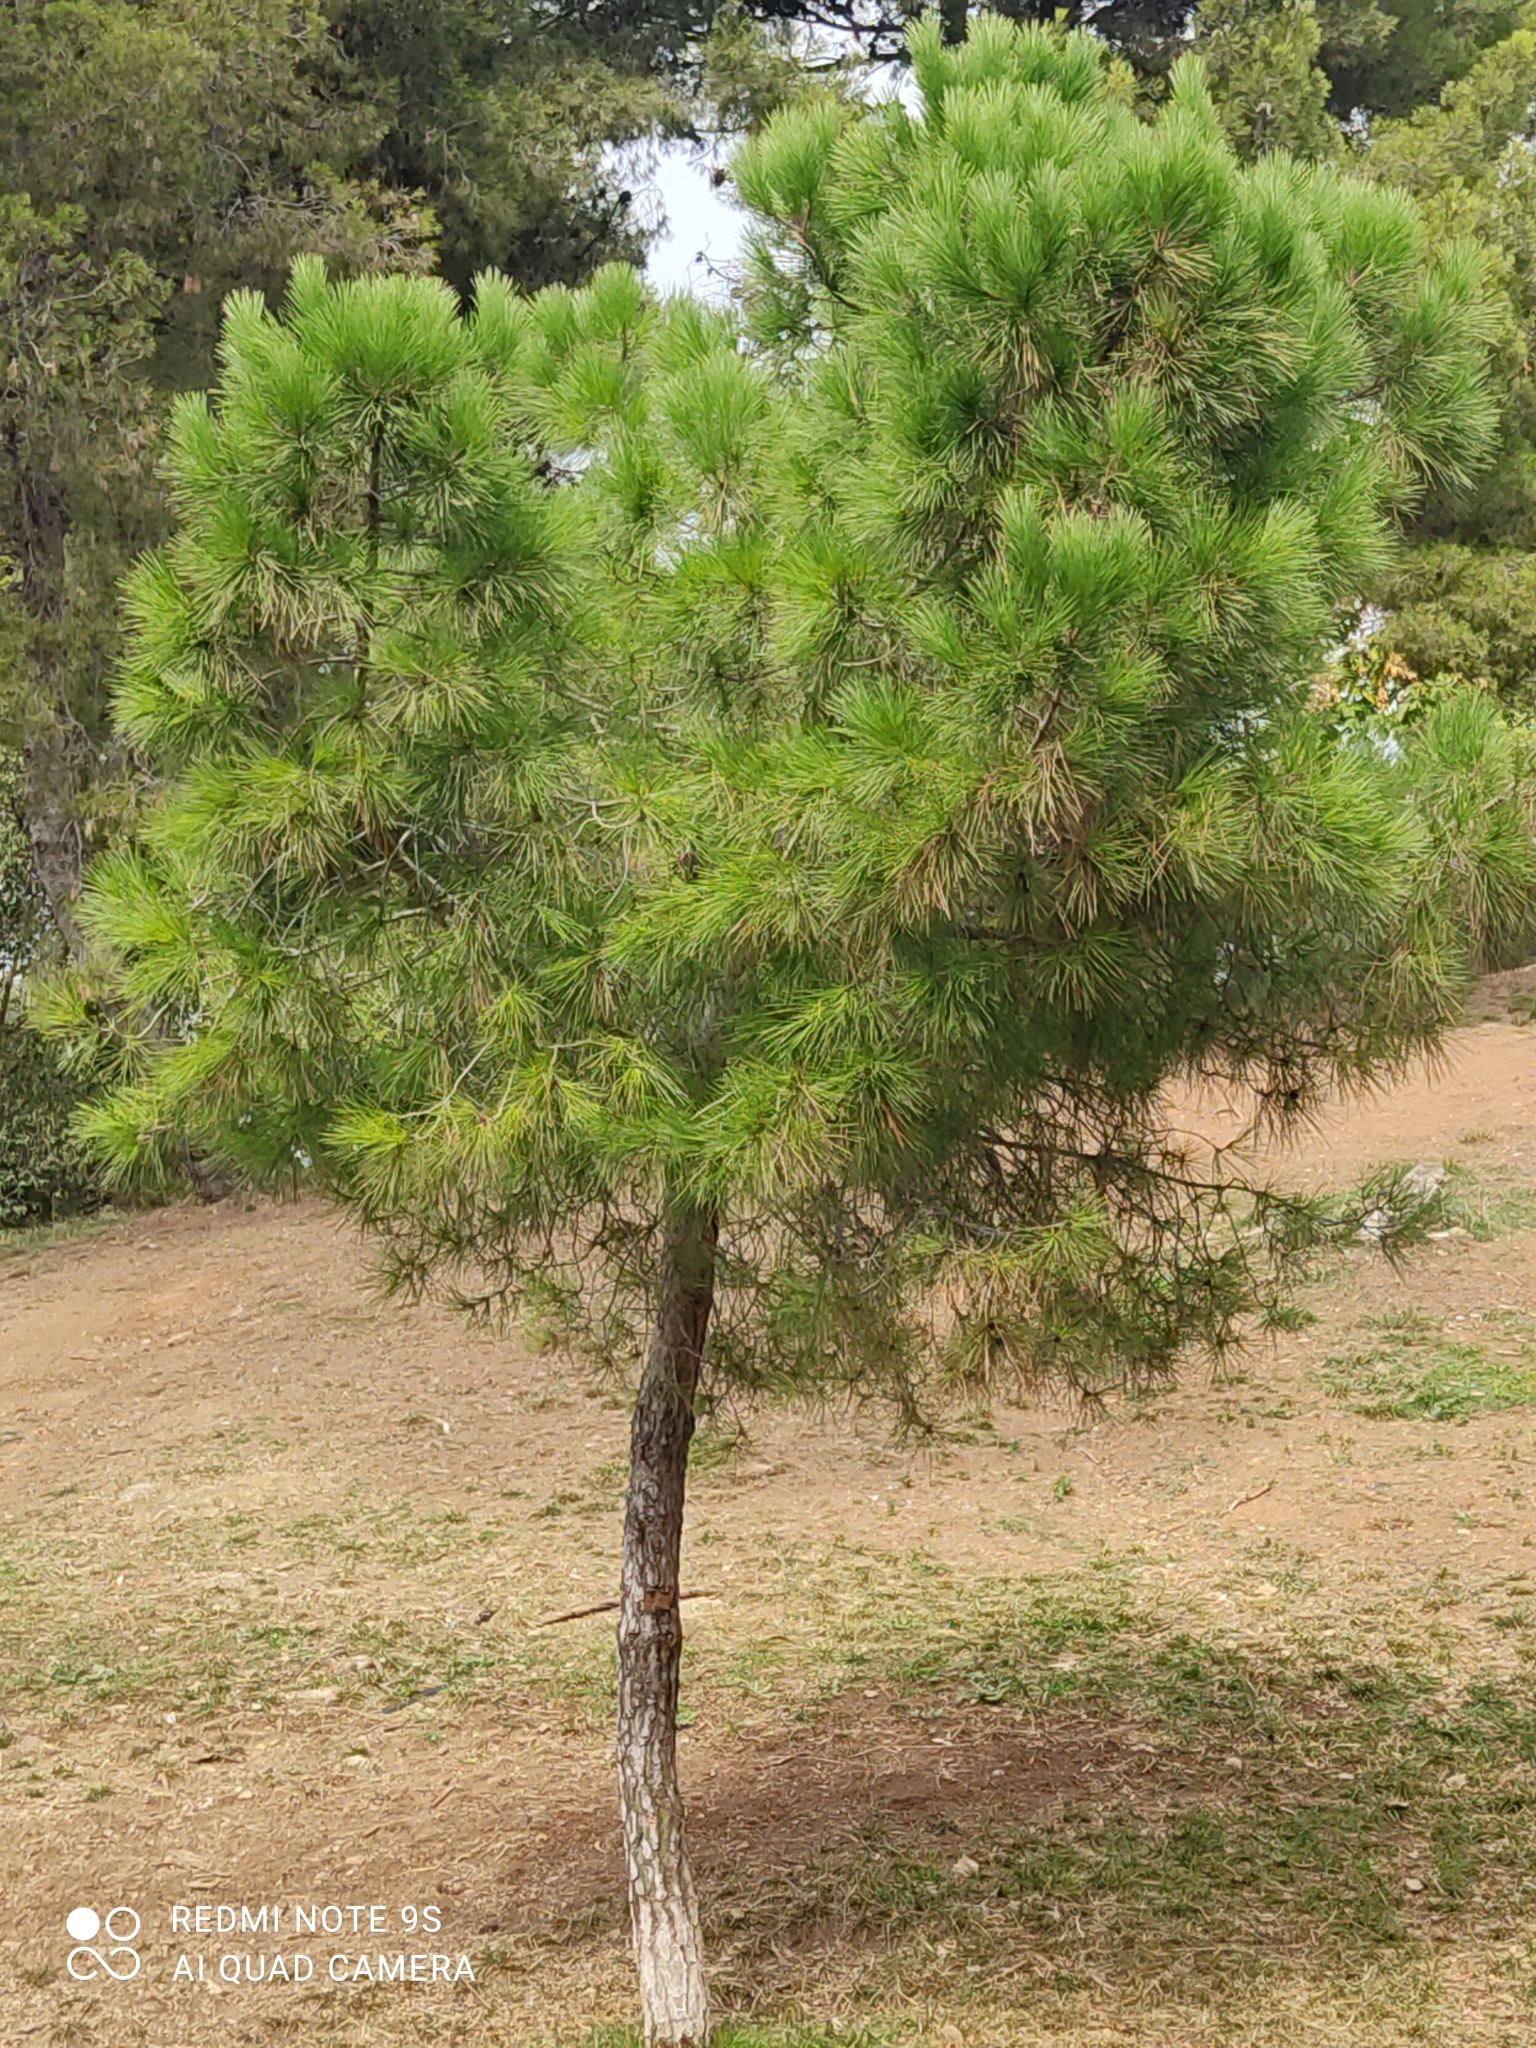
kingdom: Plantae
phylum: Tracheophyta
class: Pinopsida
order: Pinales
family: Pinaceae
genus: Pinus
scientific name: Pinus halepensis
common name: Aleppo pine
